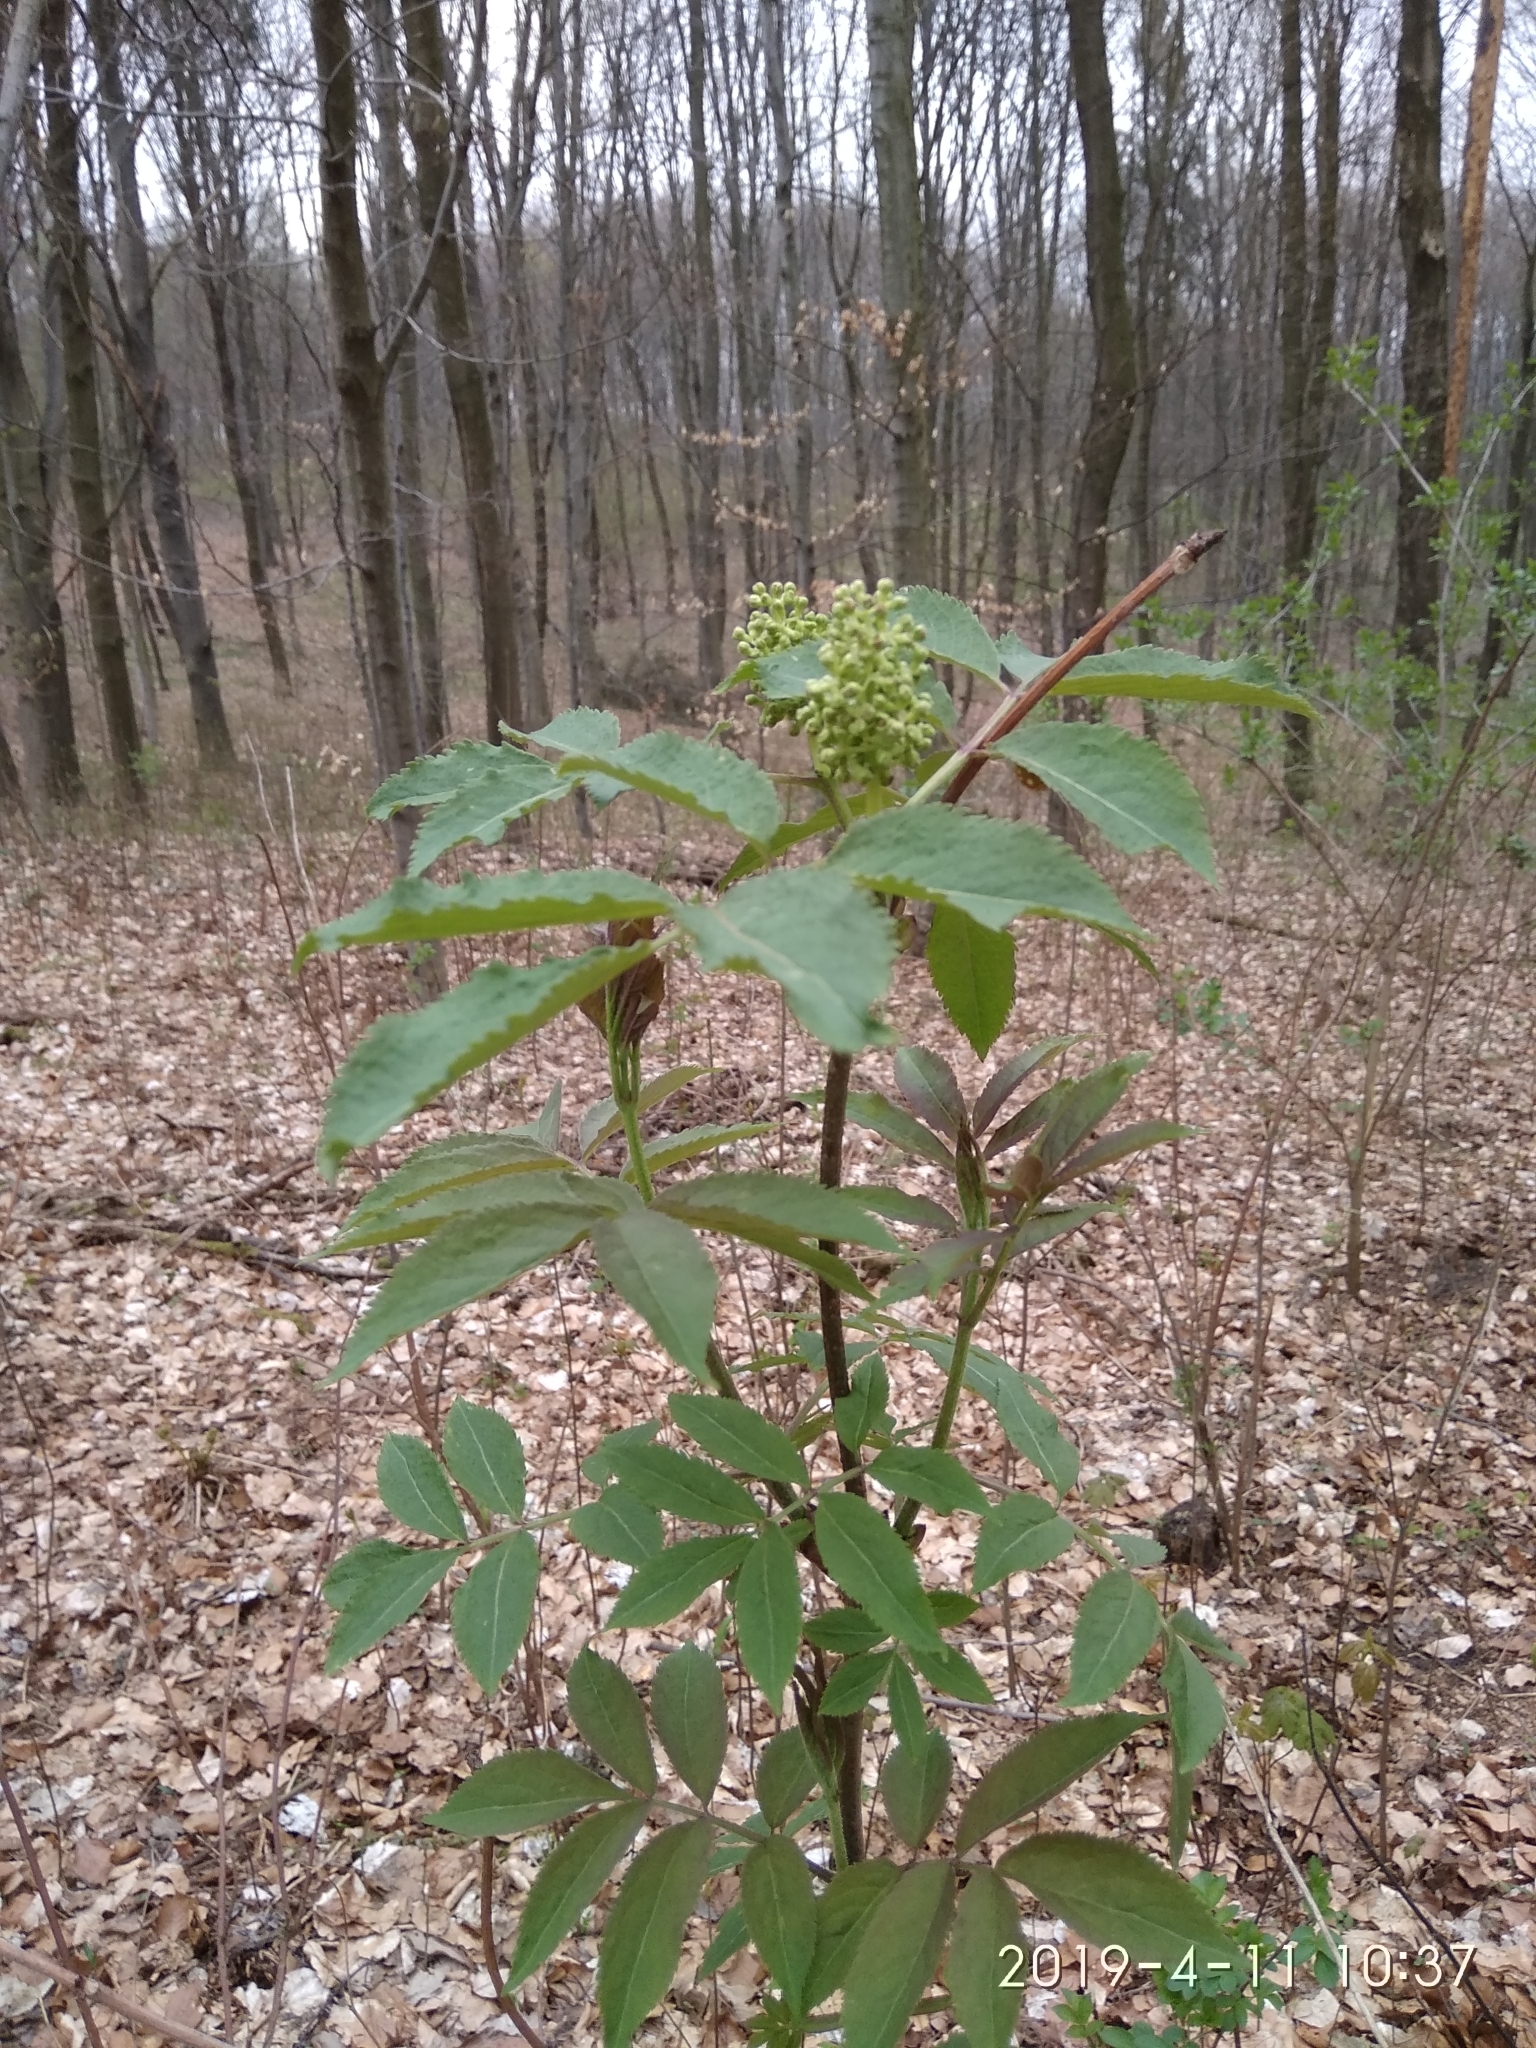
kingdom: Plantae
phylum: Tracheophyta
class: Magnoliopsida
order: Dipsacales
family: Viburnaceae
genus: Sambucus
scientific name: Sambucus racemosa
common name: Red-berried elder
